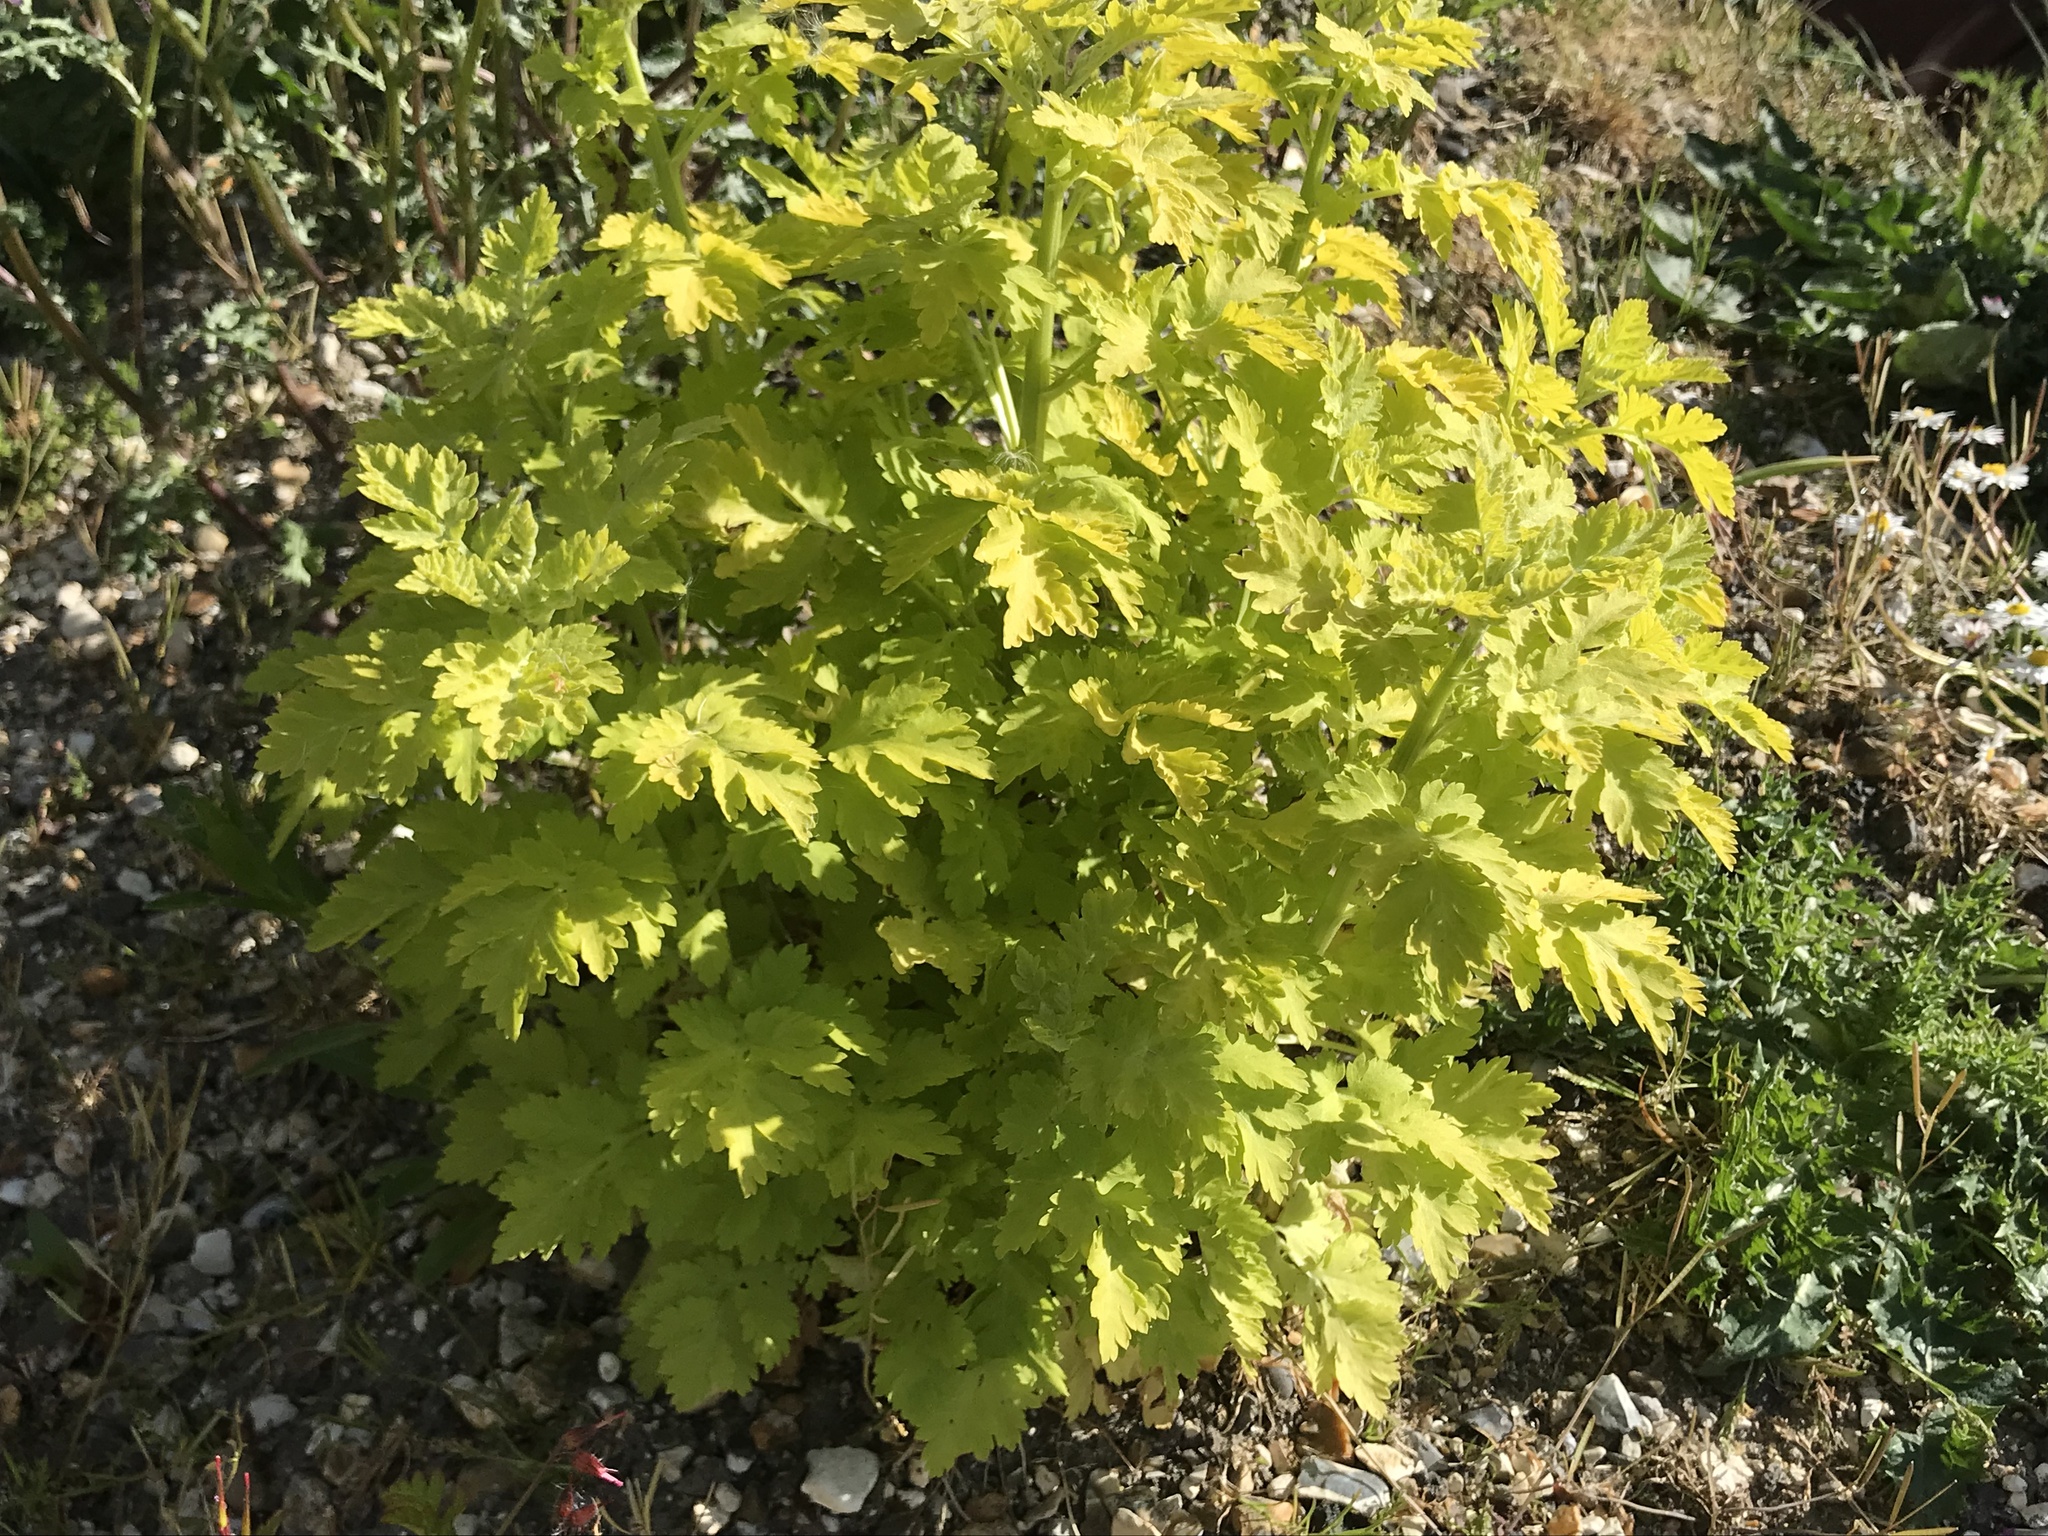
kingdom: Plantae
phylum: Tracheophyta
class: Magnoliopsida
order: Asterales
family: Asteraceae
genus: Tanacetum
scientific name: Tanacetum parthenium
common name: Feverfew
